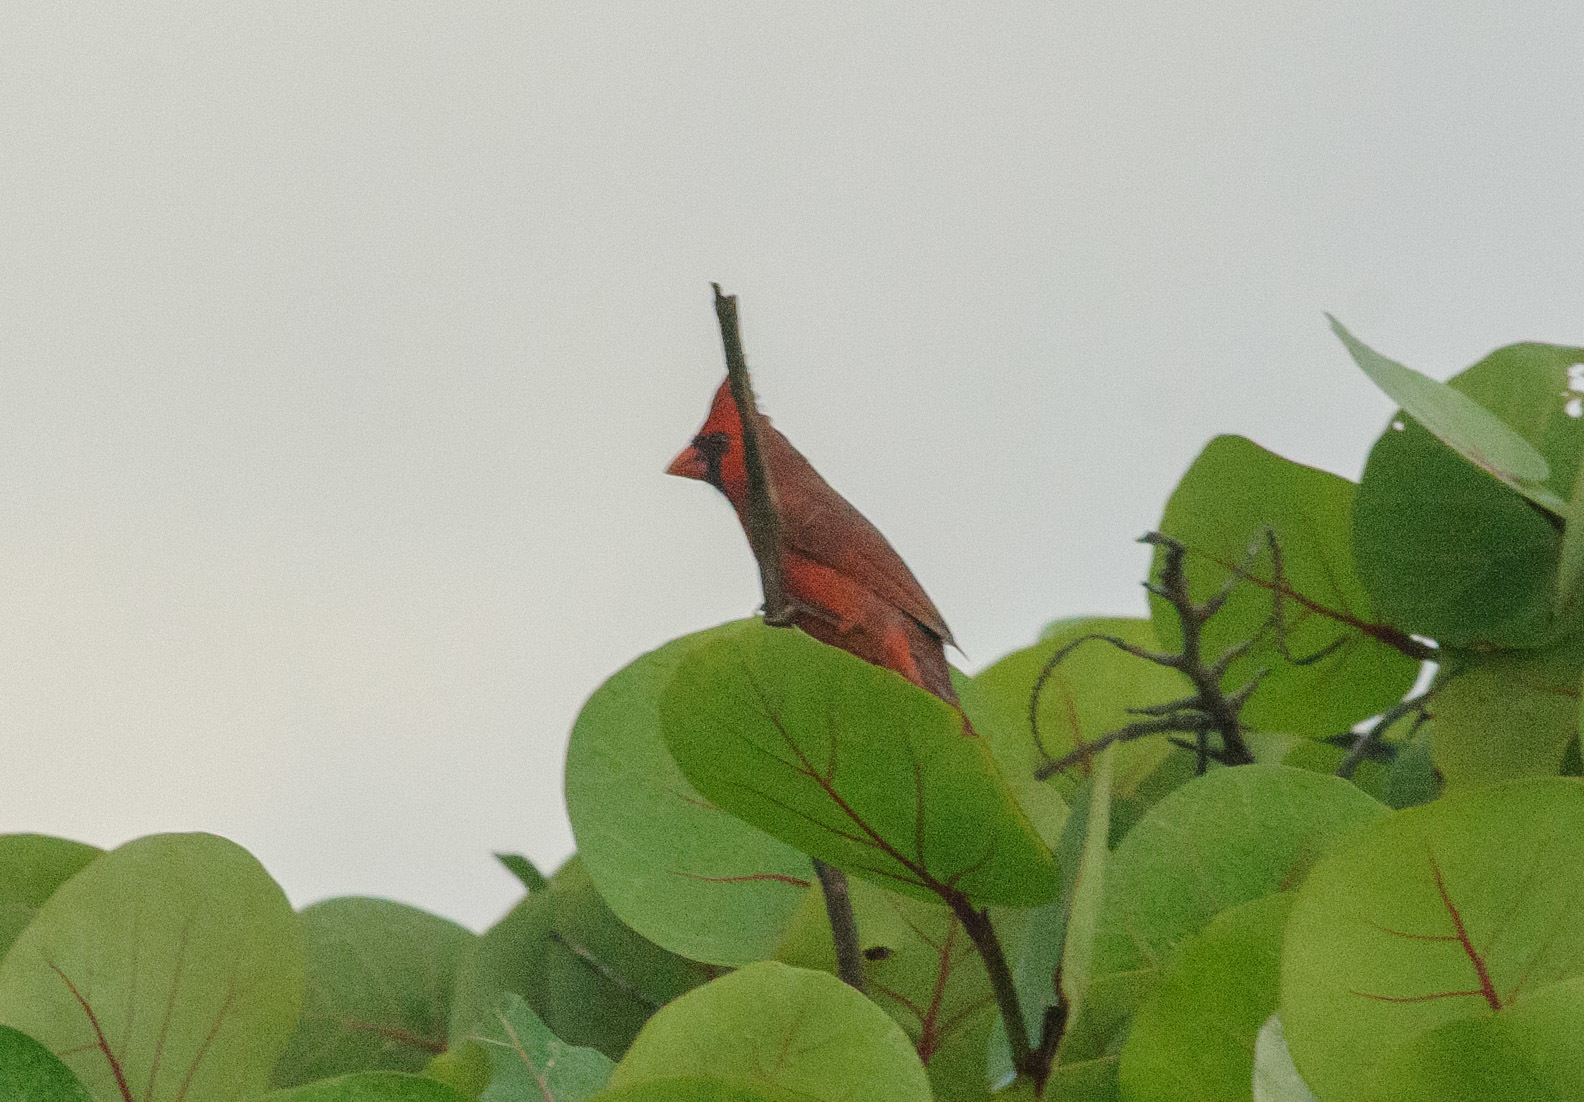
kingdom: Animalia
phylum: Chordata
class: Aves
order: Passeriformes
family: Cardinalidae
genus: Cardinalis
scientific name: Cardinalis cardinalis
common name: Northern cardinal
